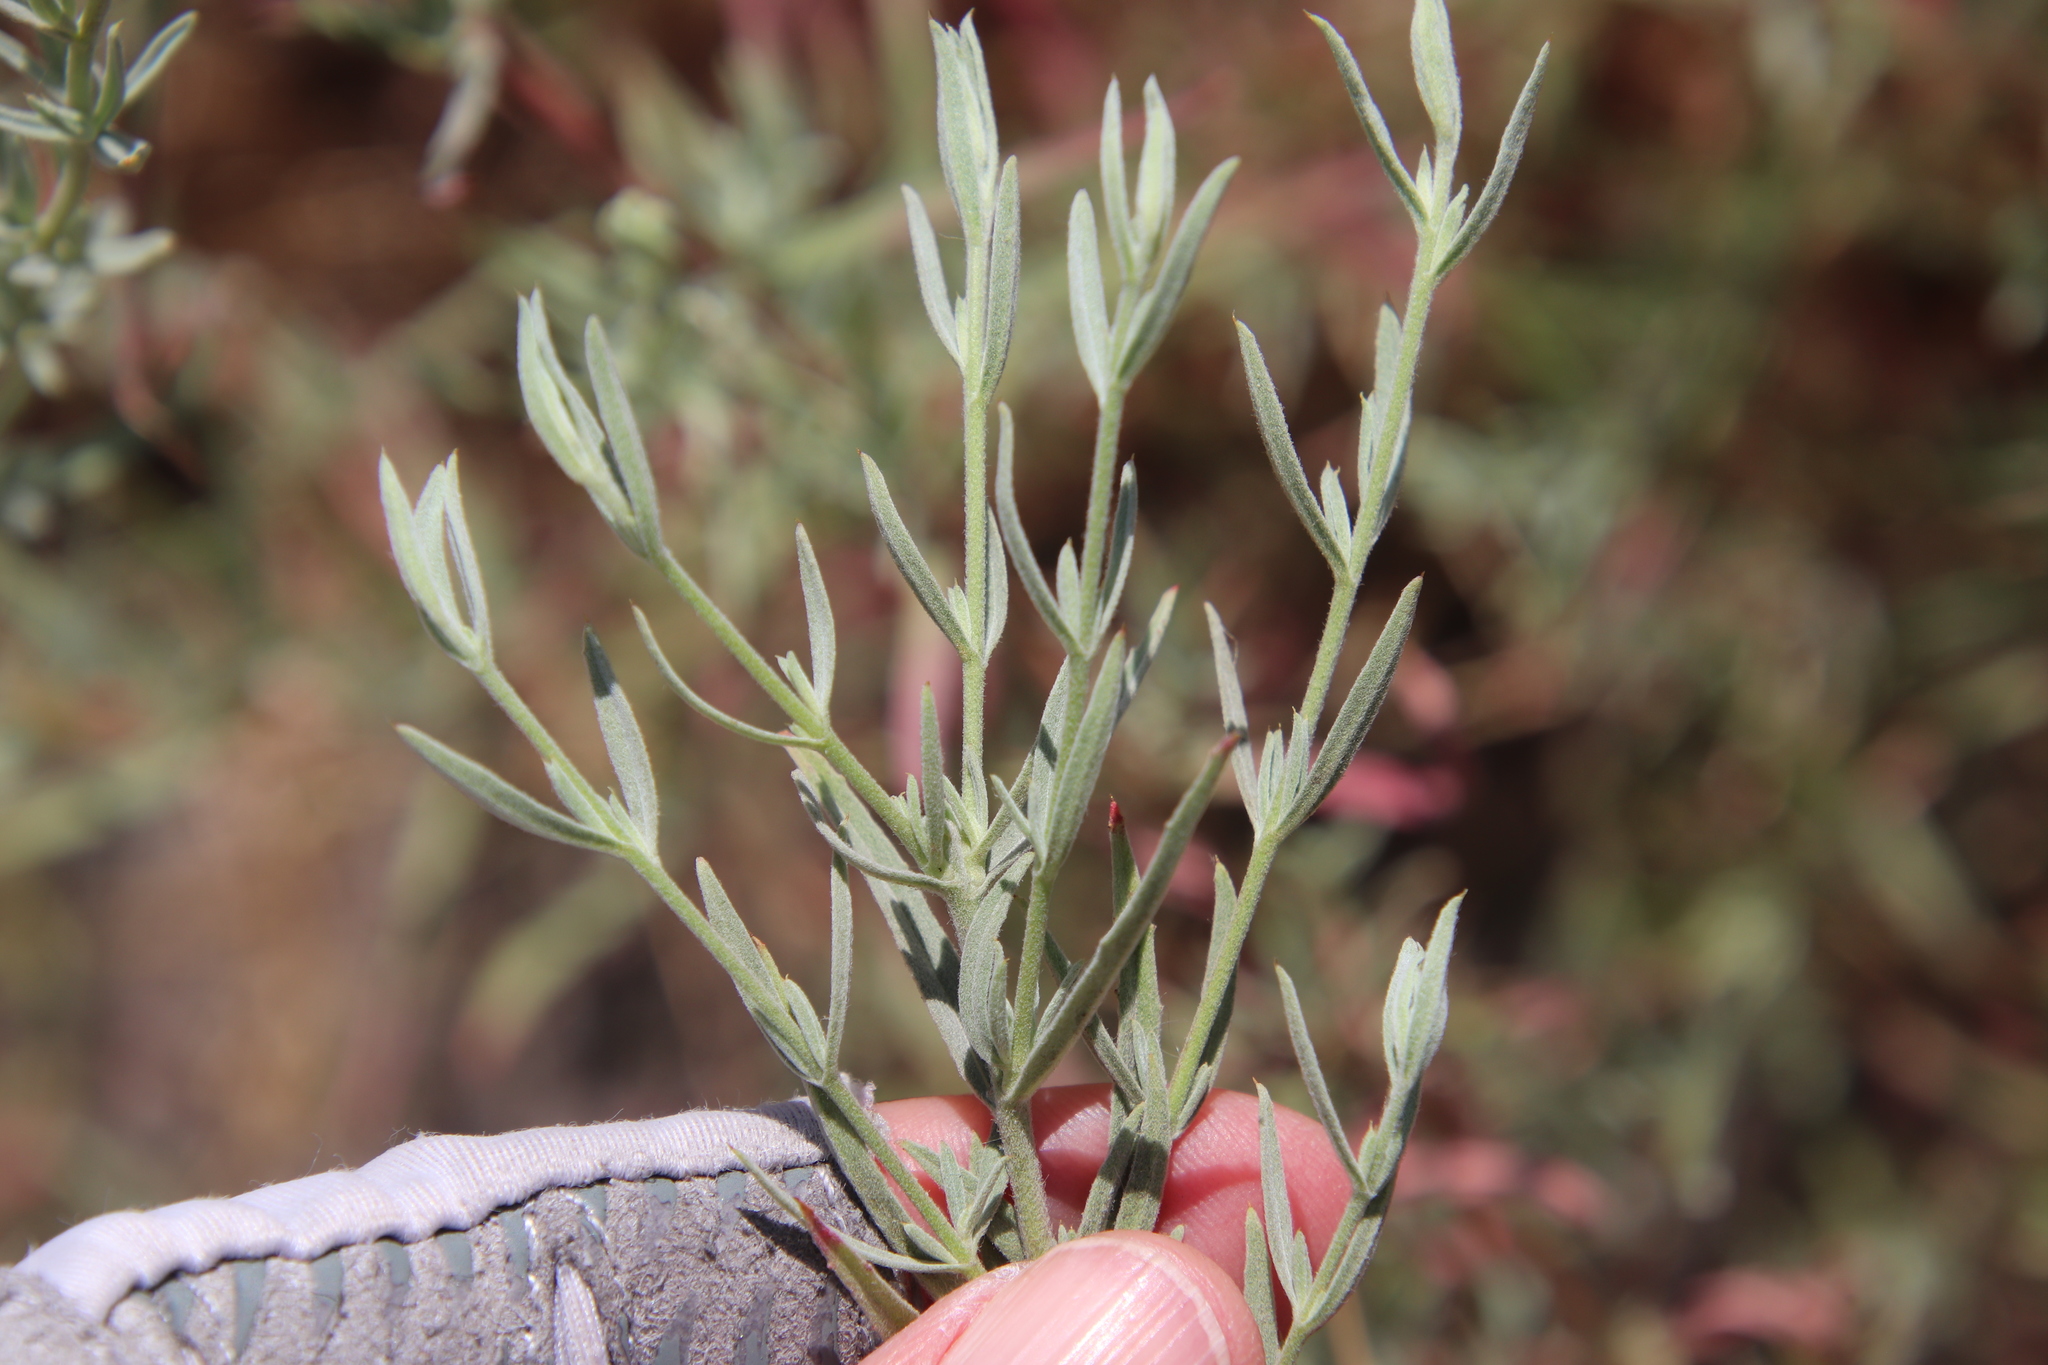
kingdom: Plantae
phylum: Tracheophyta
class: Magnoliopsida
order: Myrtales
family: Onagraceae
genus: Epilobium
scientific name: Epilobium canum
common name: California-fuchsia
